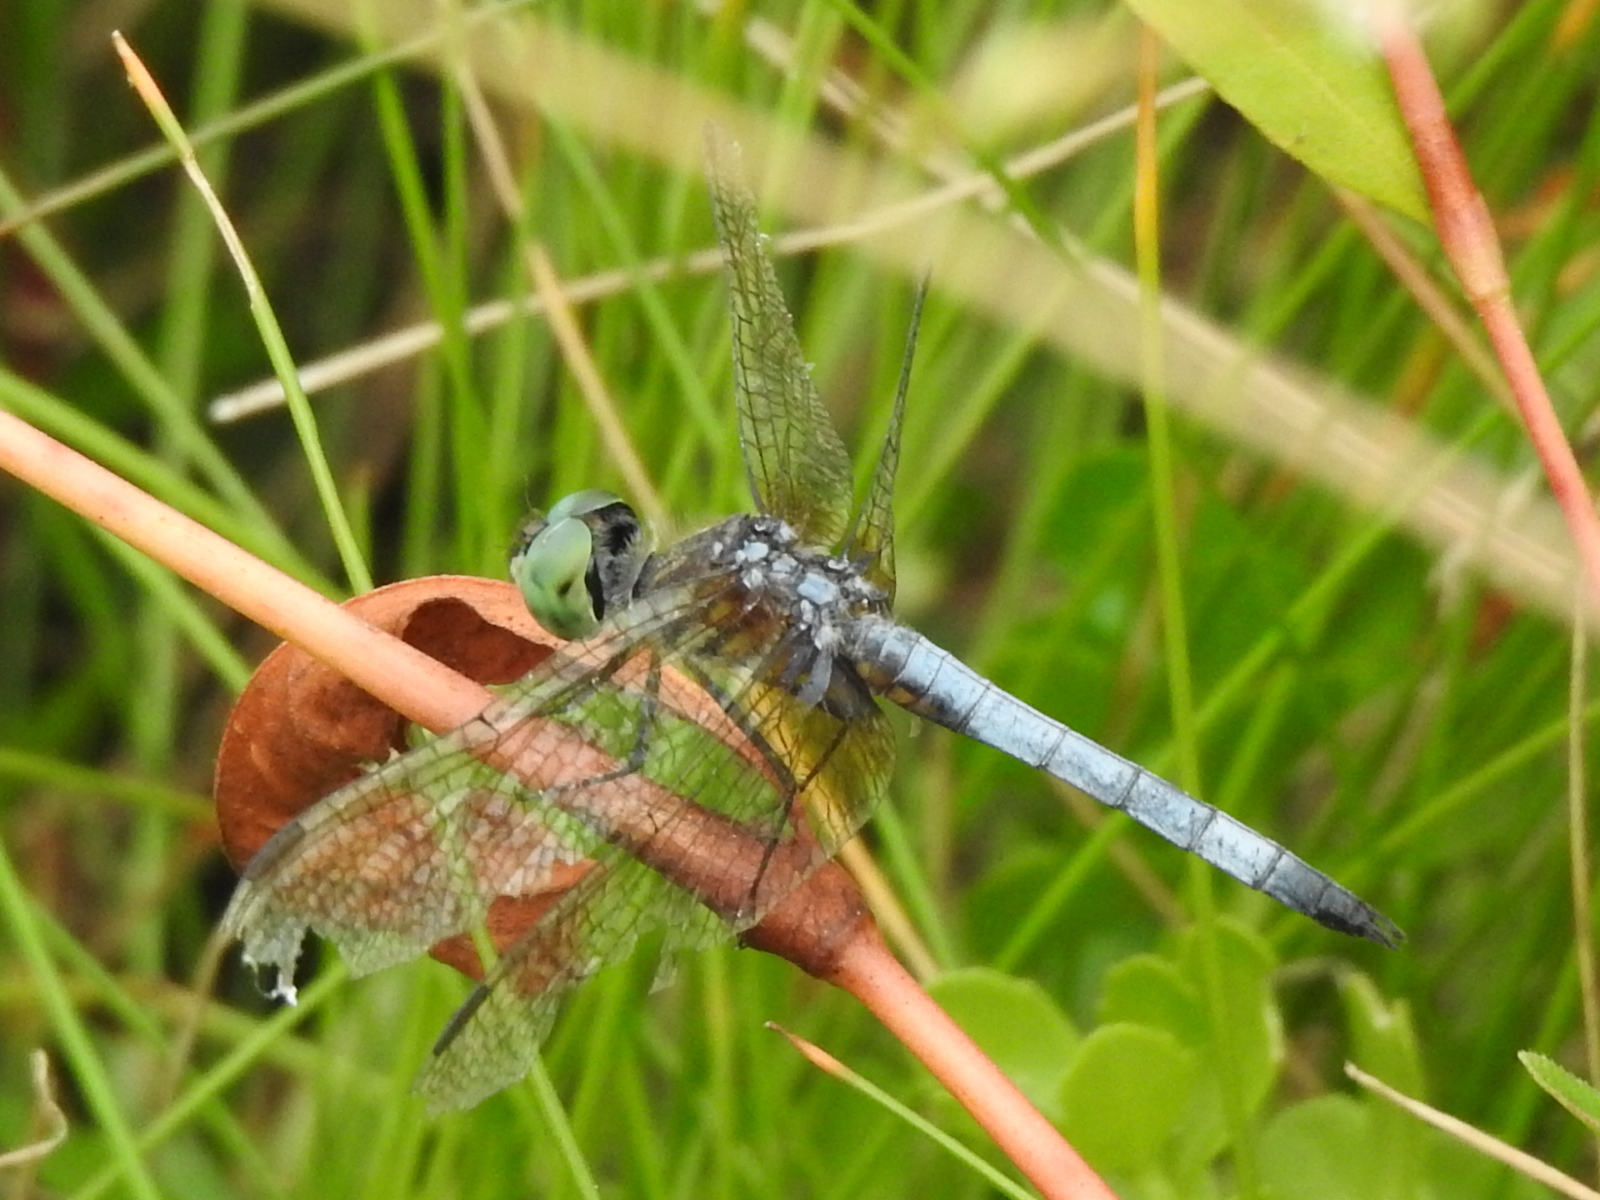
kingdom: Animalia
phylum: Arthropoda
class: Insecta
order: Odonata
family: Libellulidae
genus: Pachydiplax
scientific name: Pachydiplax longipennis
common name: Blue dasher
